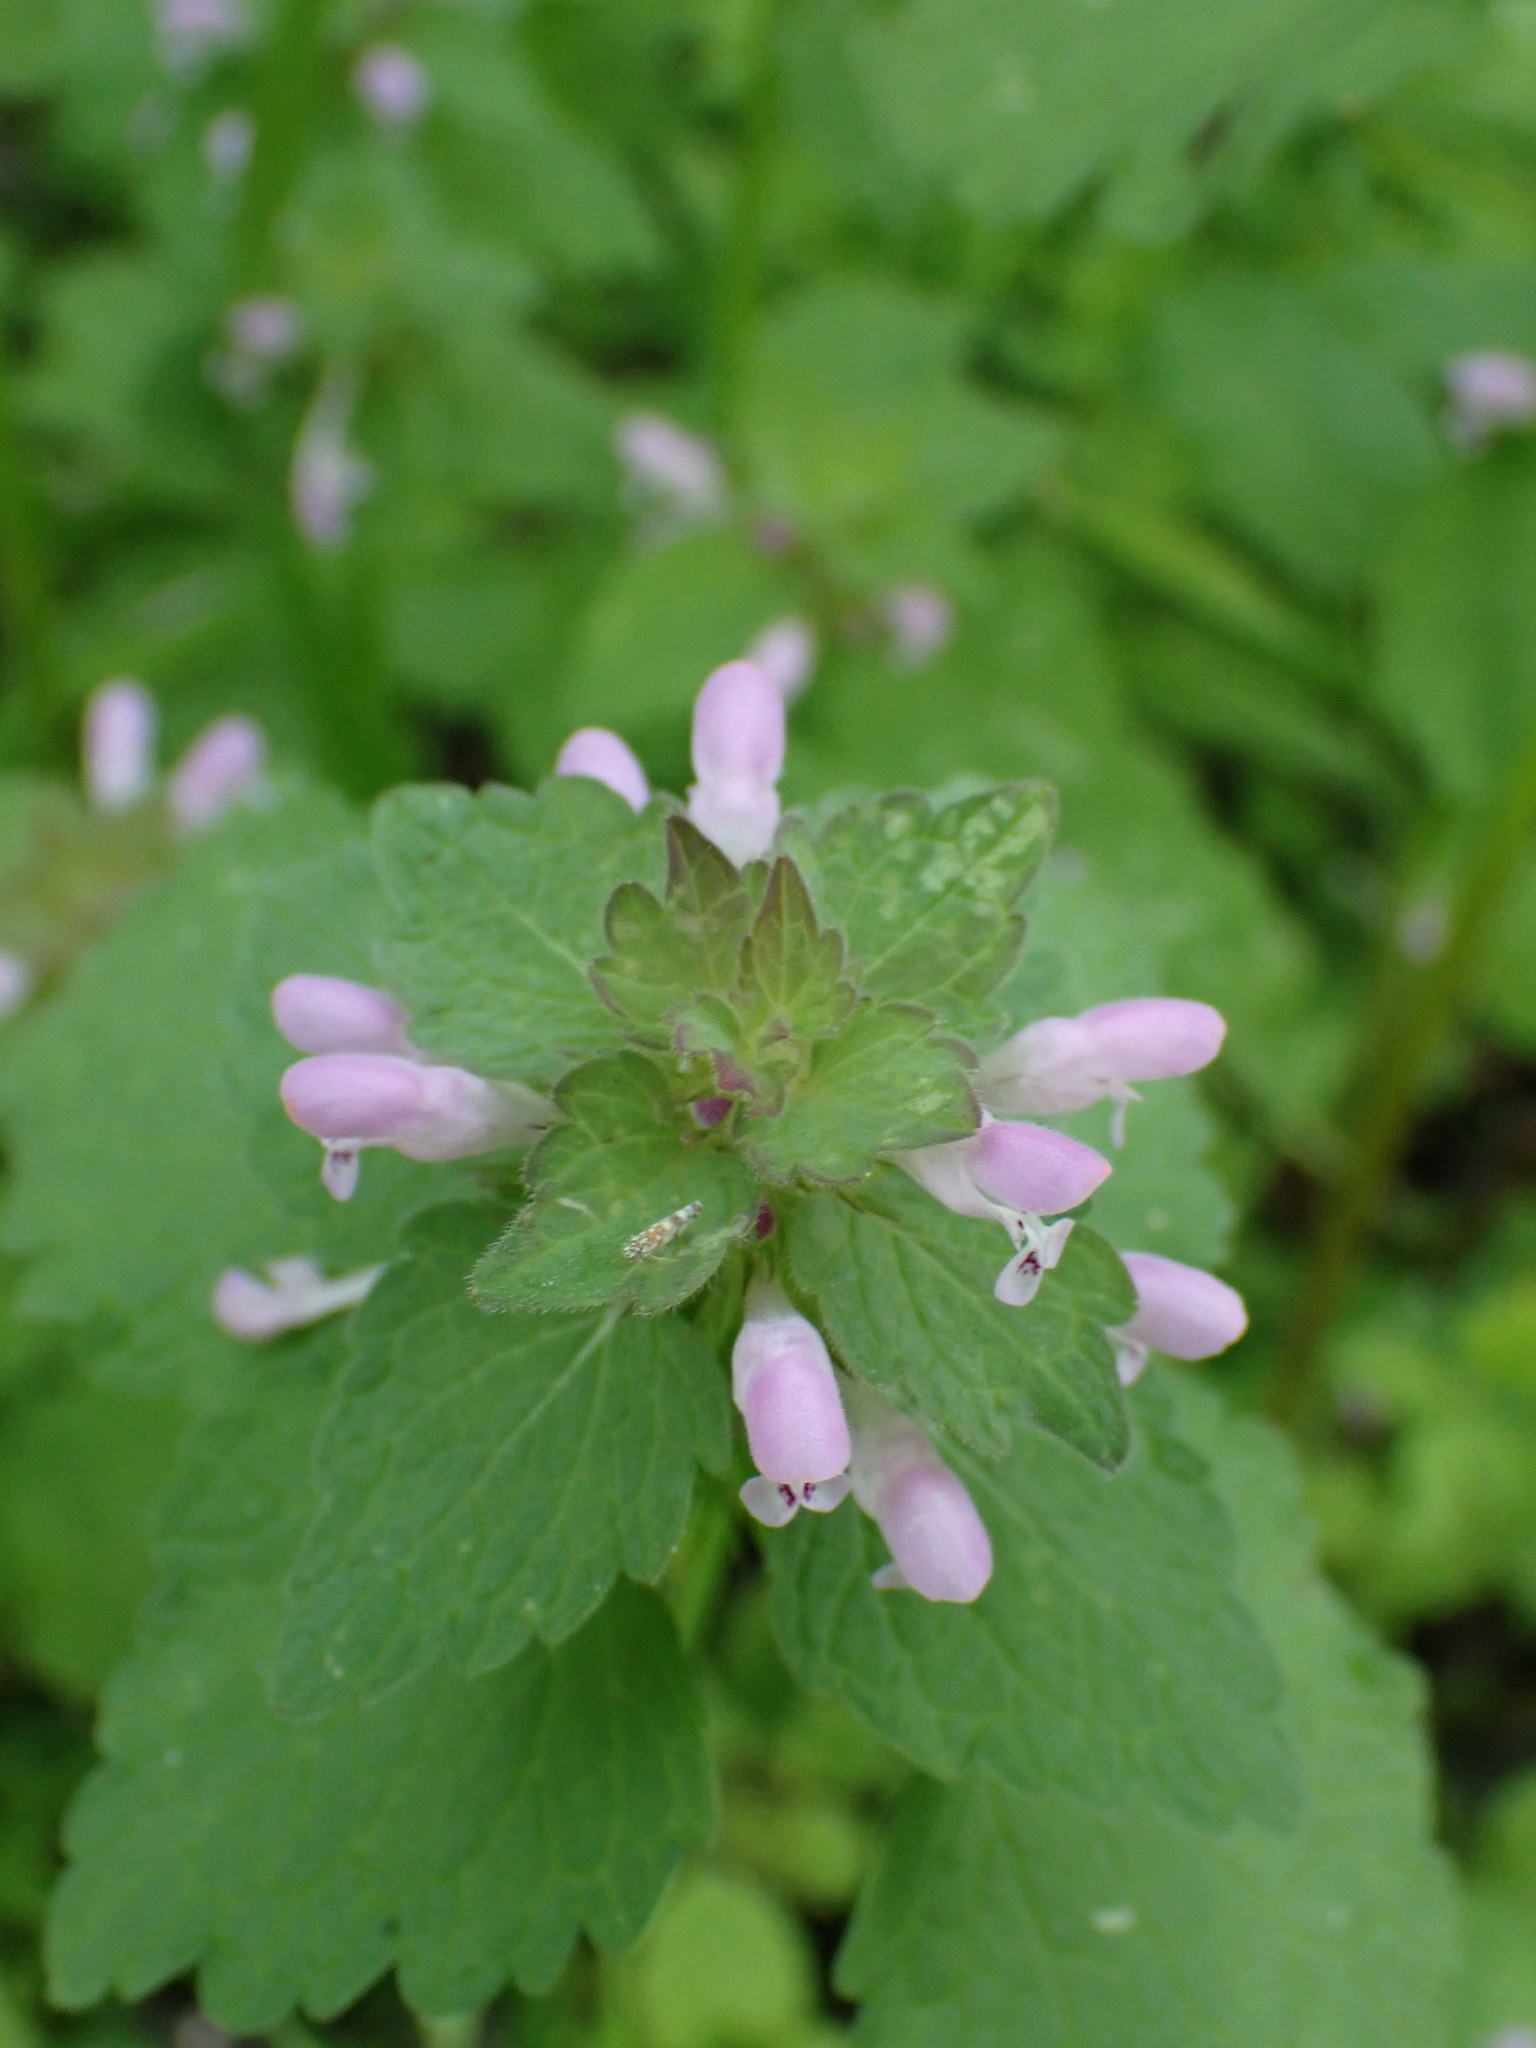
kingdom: Plantae
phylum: Tracheophyta
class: Magnoliopsida
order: Lamiales
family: Lamiaceae
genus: Lamium
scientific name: Lamium purpureum
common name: Red dead-nettle
